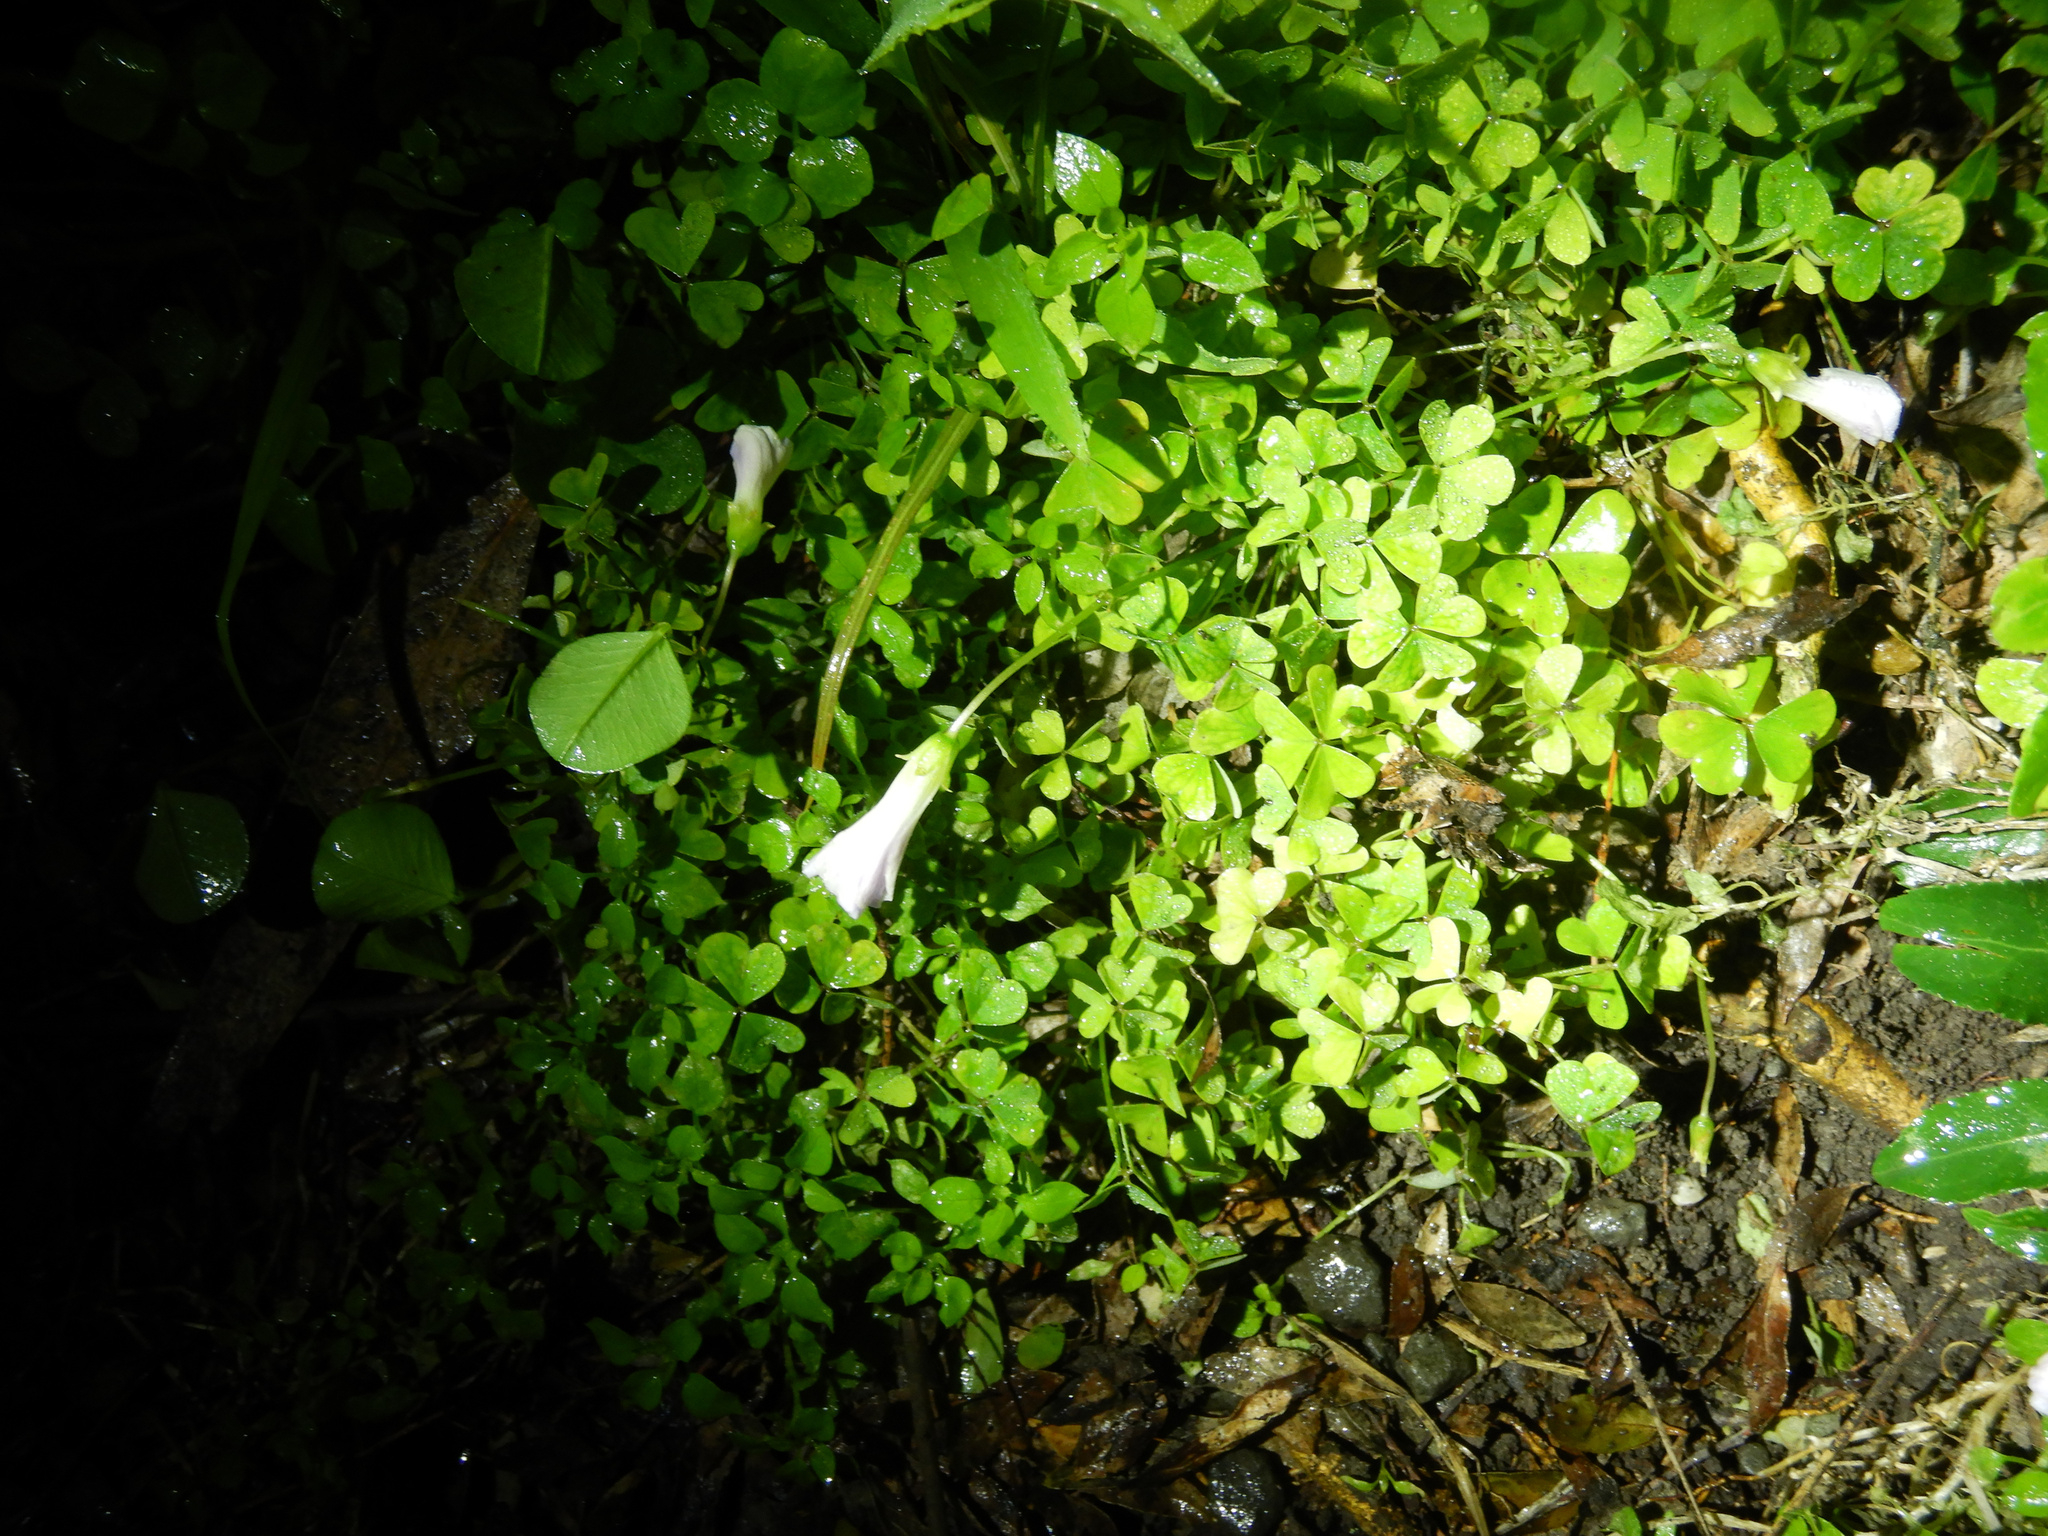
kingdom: Plantae
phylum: Tracheophyta
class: Magnoliopsida
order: Oxalidales
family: Oxalidaceae
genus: Oxalis
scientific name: Oxalis incarnata
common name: Pale pink-sorrel
